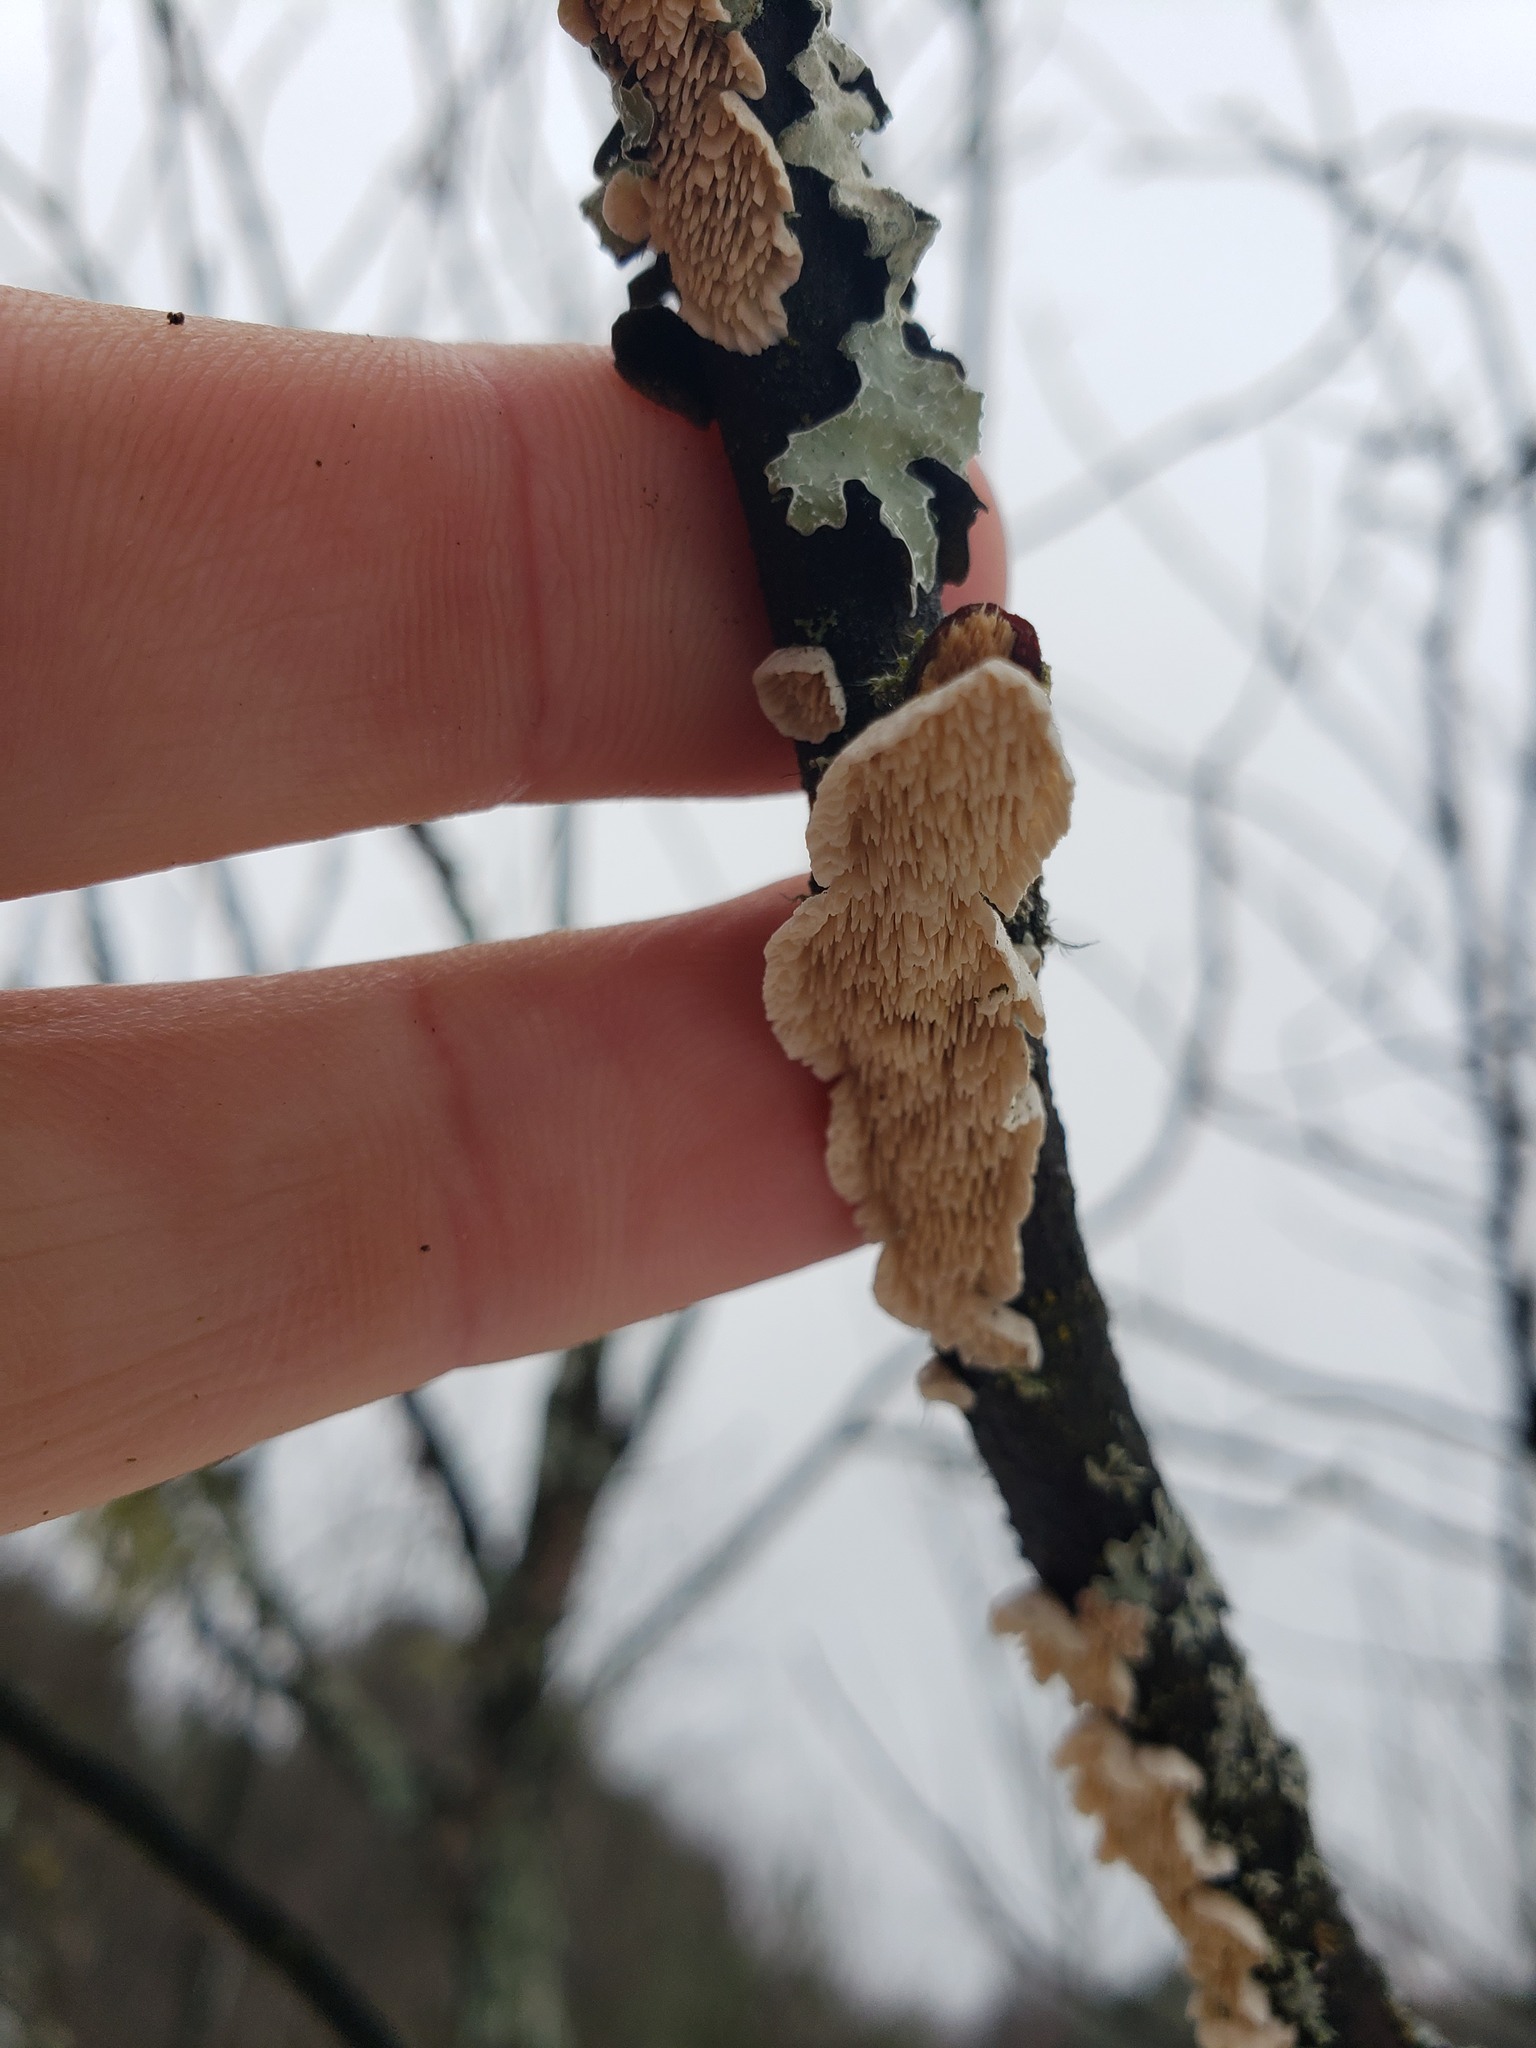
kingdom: Fungi
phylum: Basidiomycota
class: Agaricomycetes
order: Polyporales
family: Irpicaceae
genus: Irpex
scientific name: Irpex lacteus
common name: Milk-white toothed polypore
